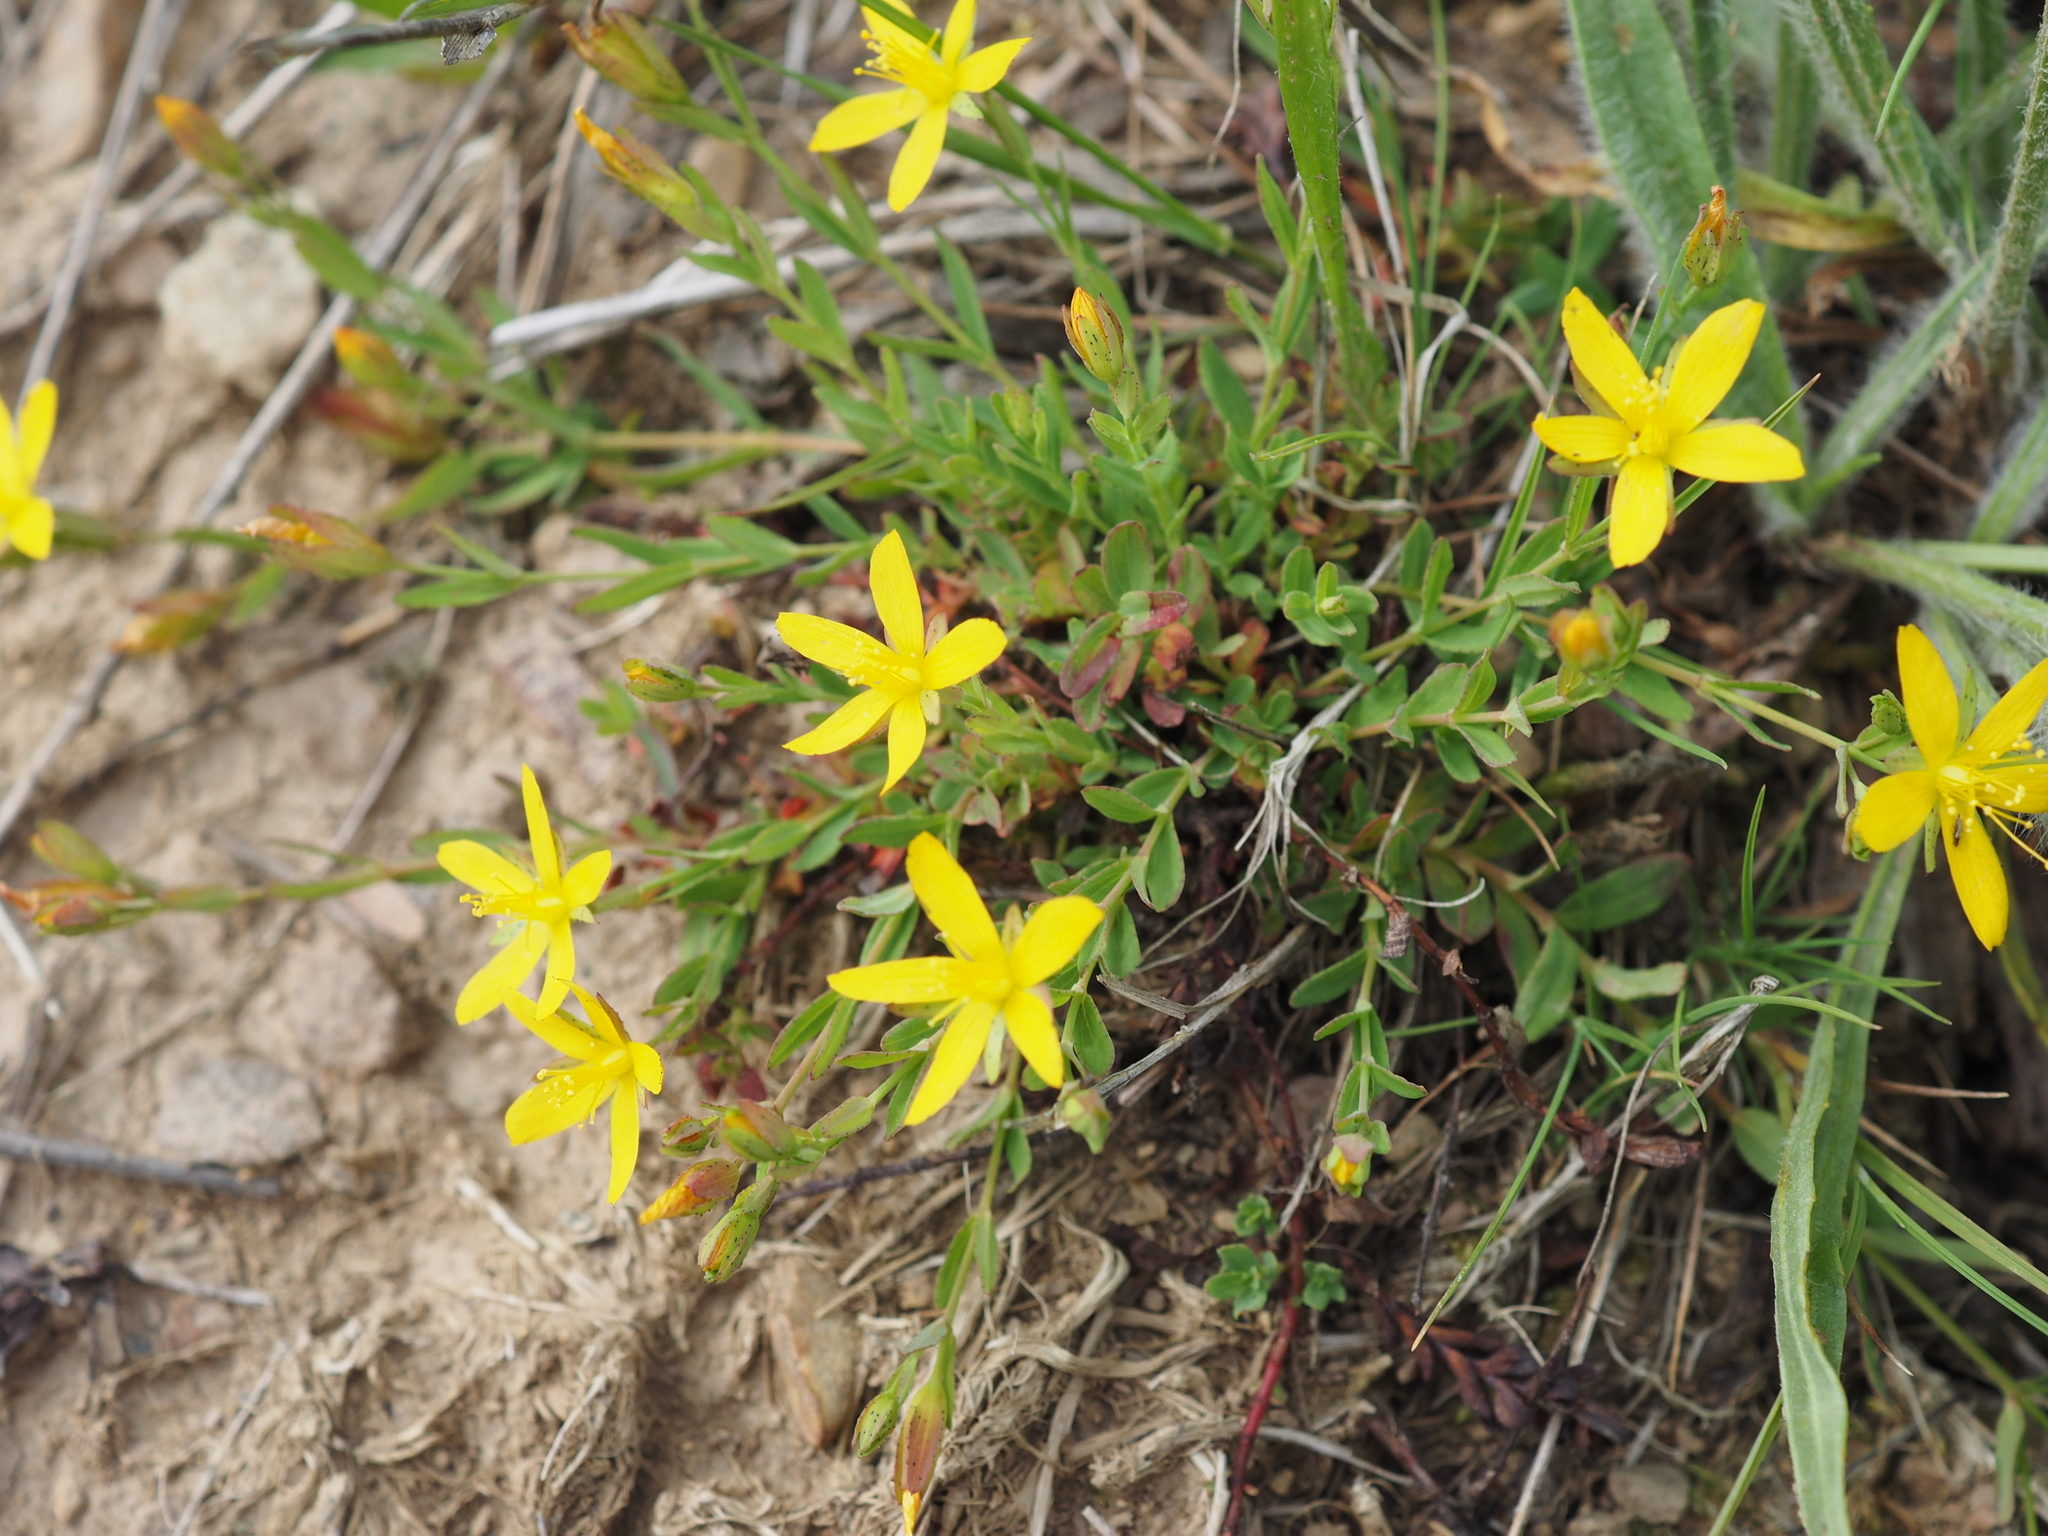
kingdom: Plantae
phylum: Tracheophyta
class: Magnoliopsida
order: Malpighiales
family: Hypericaceae
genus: Hypericum
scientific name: Hypericum humifusum
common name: Trailing st. john's-wort
